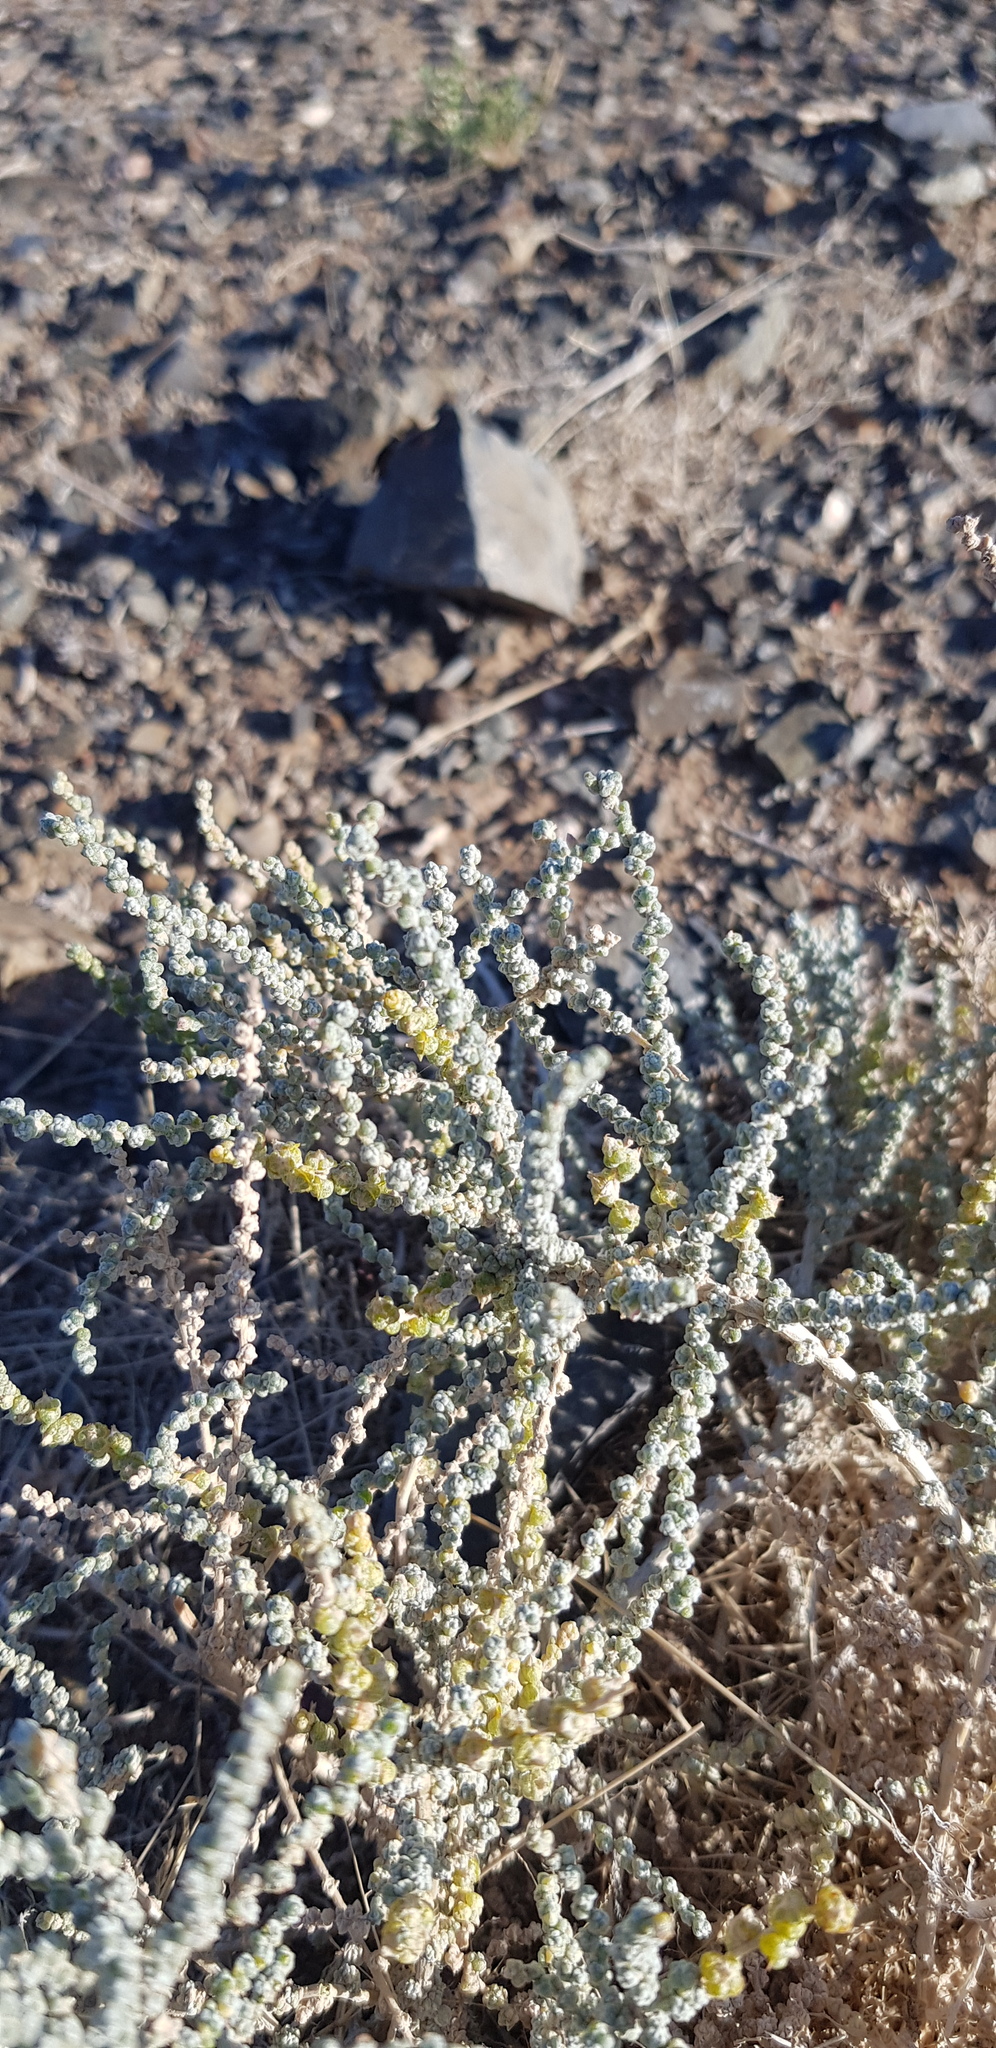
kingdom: Plantae
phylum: Tracheophyta
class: Magnoliopsida
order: Caryophyllales
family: Amaranthaceae
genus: Caroxylon
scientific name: Caroxylon passerinum
